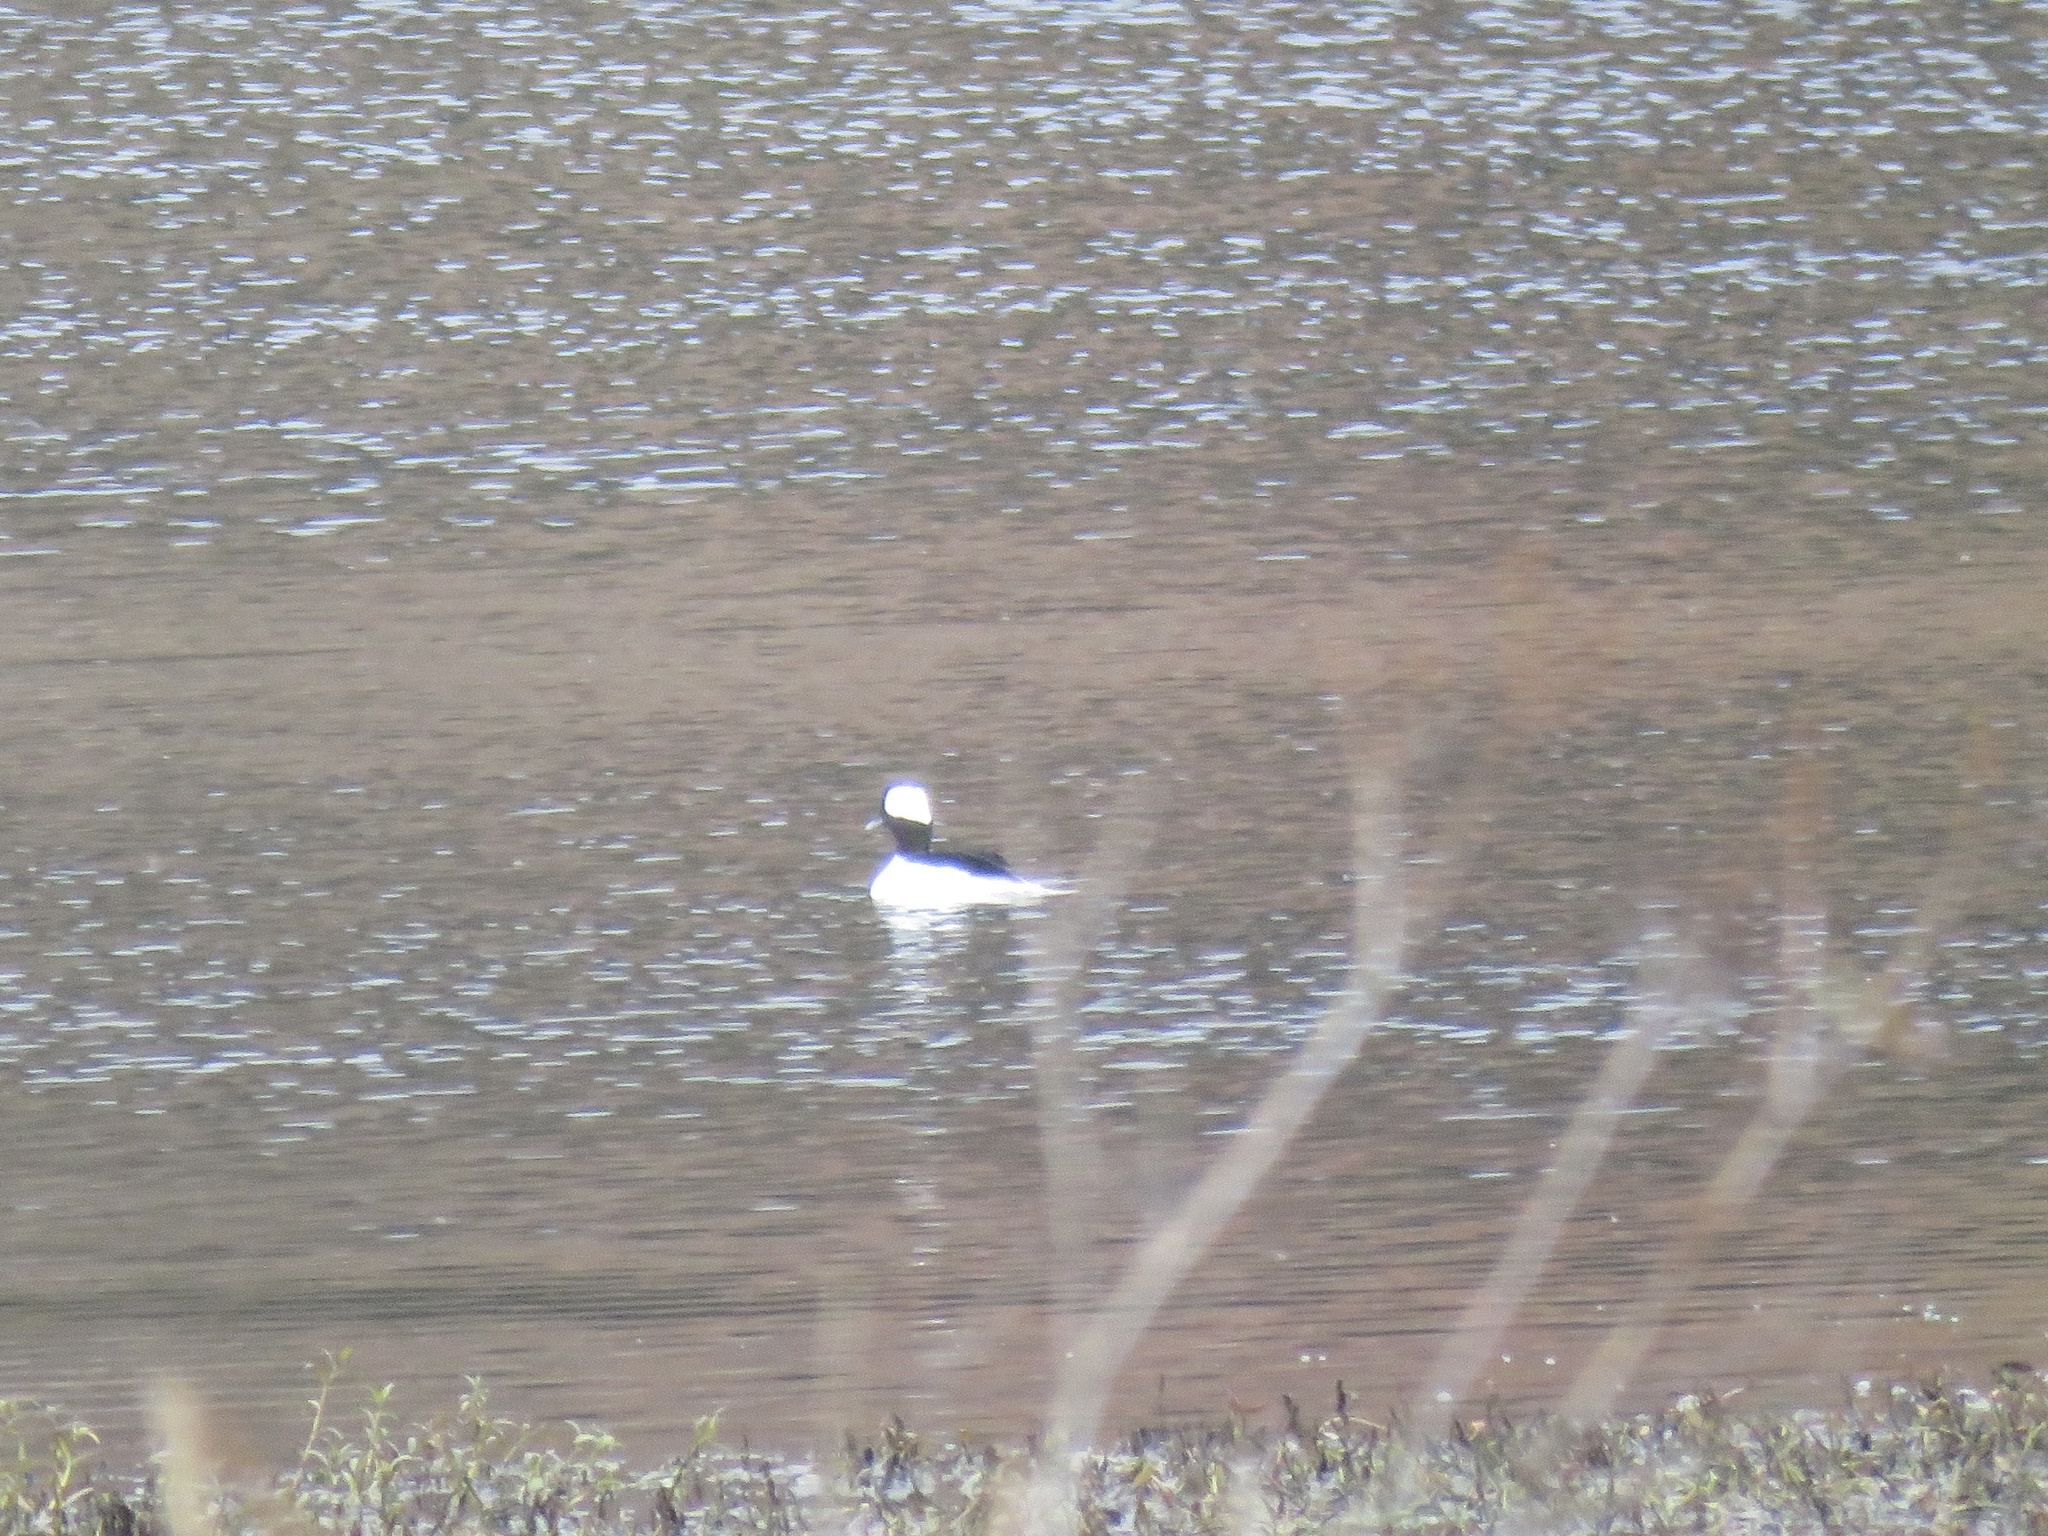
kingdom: Animalia
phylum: Chordata
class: Aves
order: Anseriformes
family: Anatidae
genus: Bucephala
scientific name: Bucephala albeola
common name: Bufflehead
